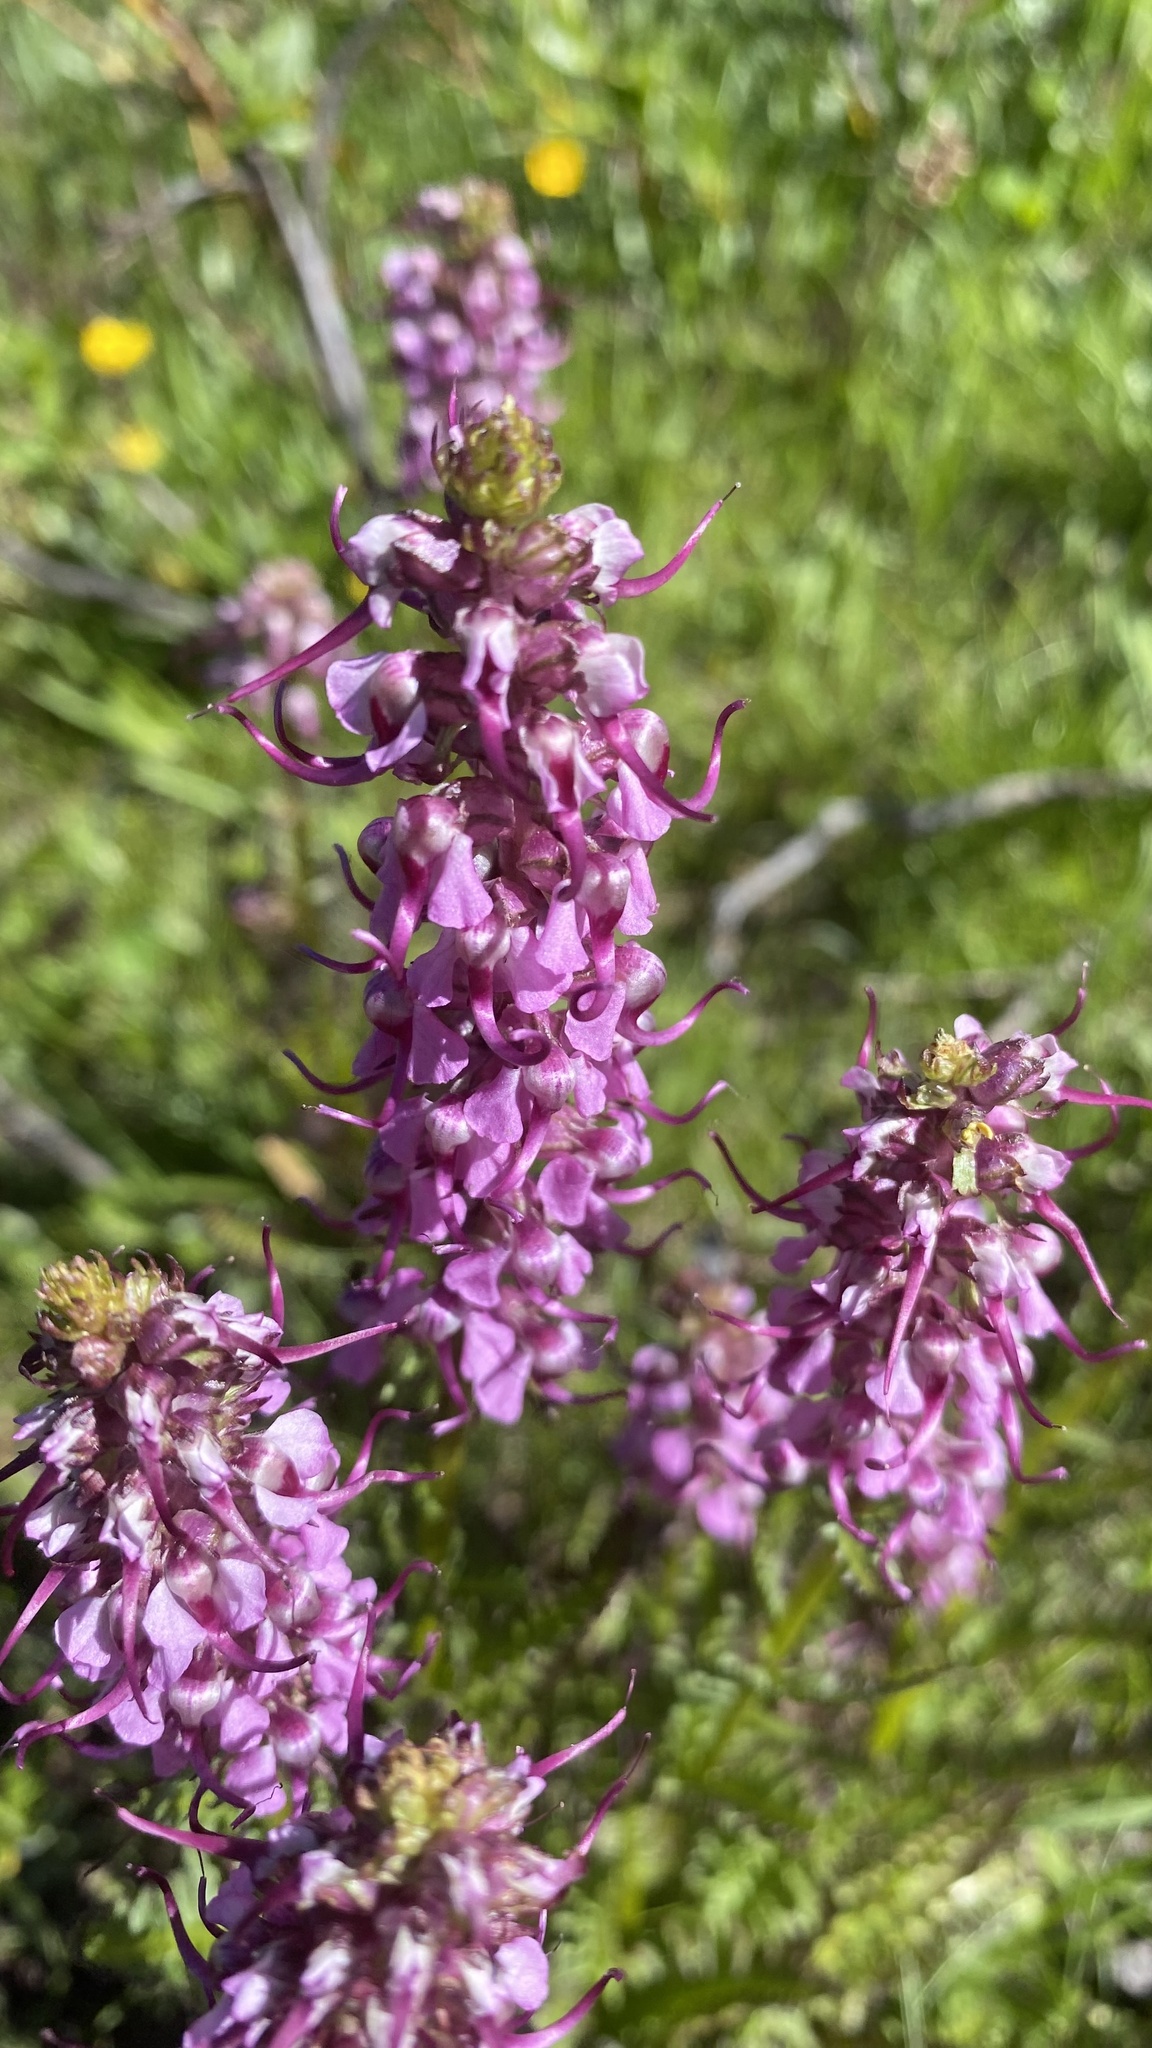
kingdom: Plantae
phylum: Tracheophyta
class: Magnoliopsida
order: Lamiales
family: Orobanchaceae
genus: Pedicularis
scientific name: Pedicularis groenlandica
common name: Elephant's-head
